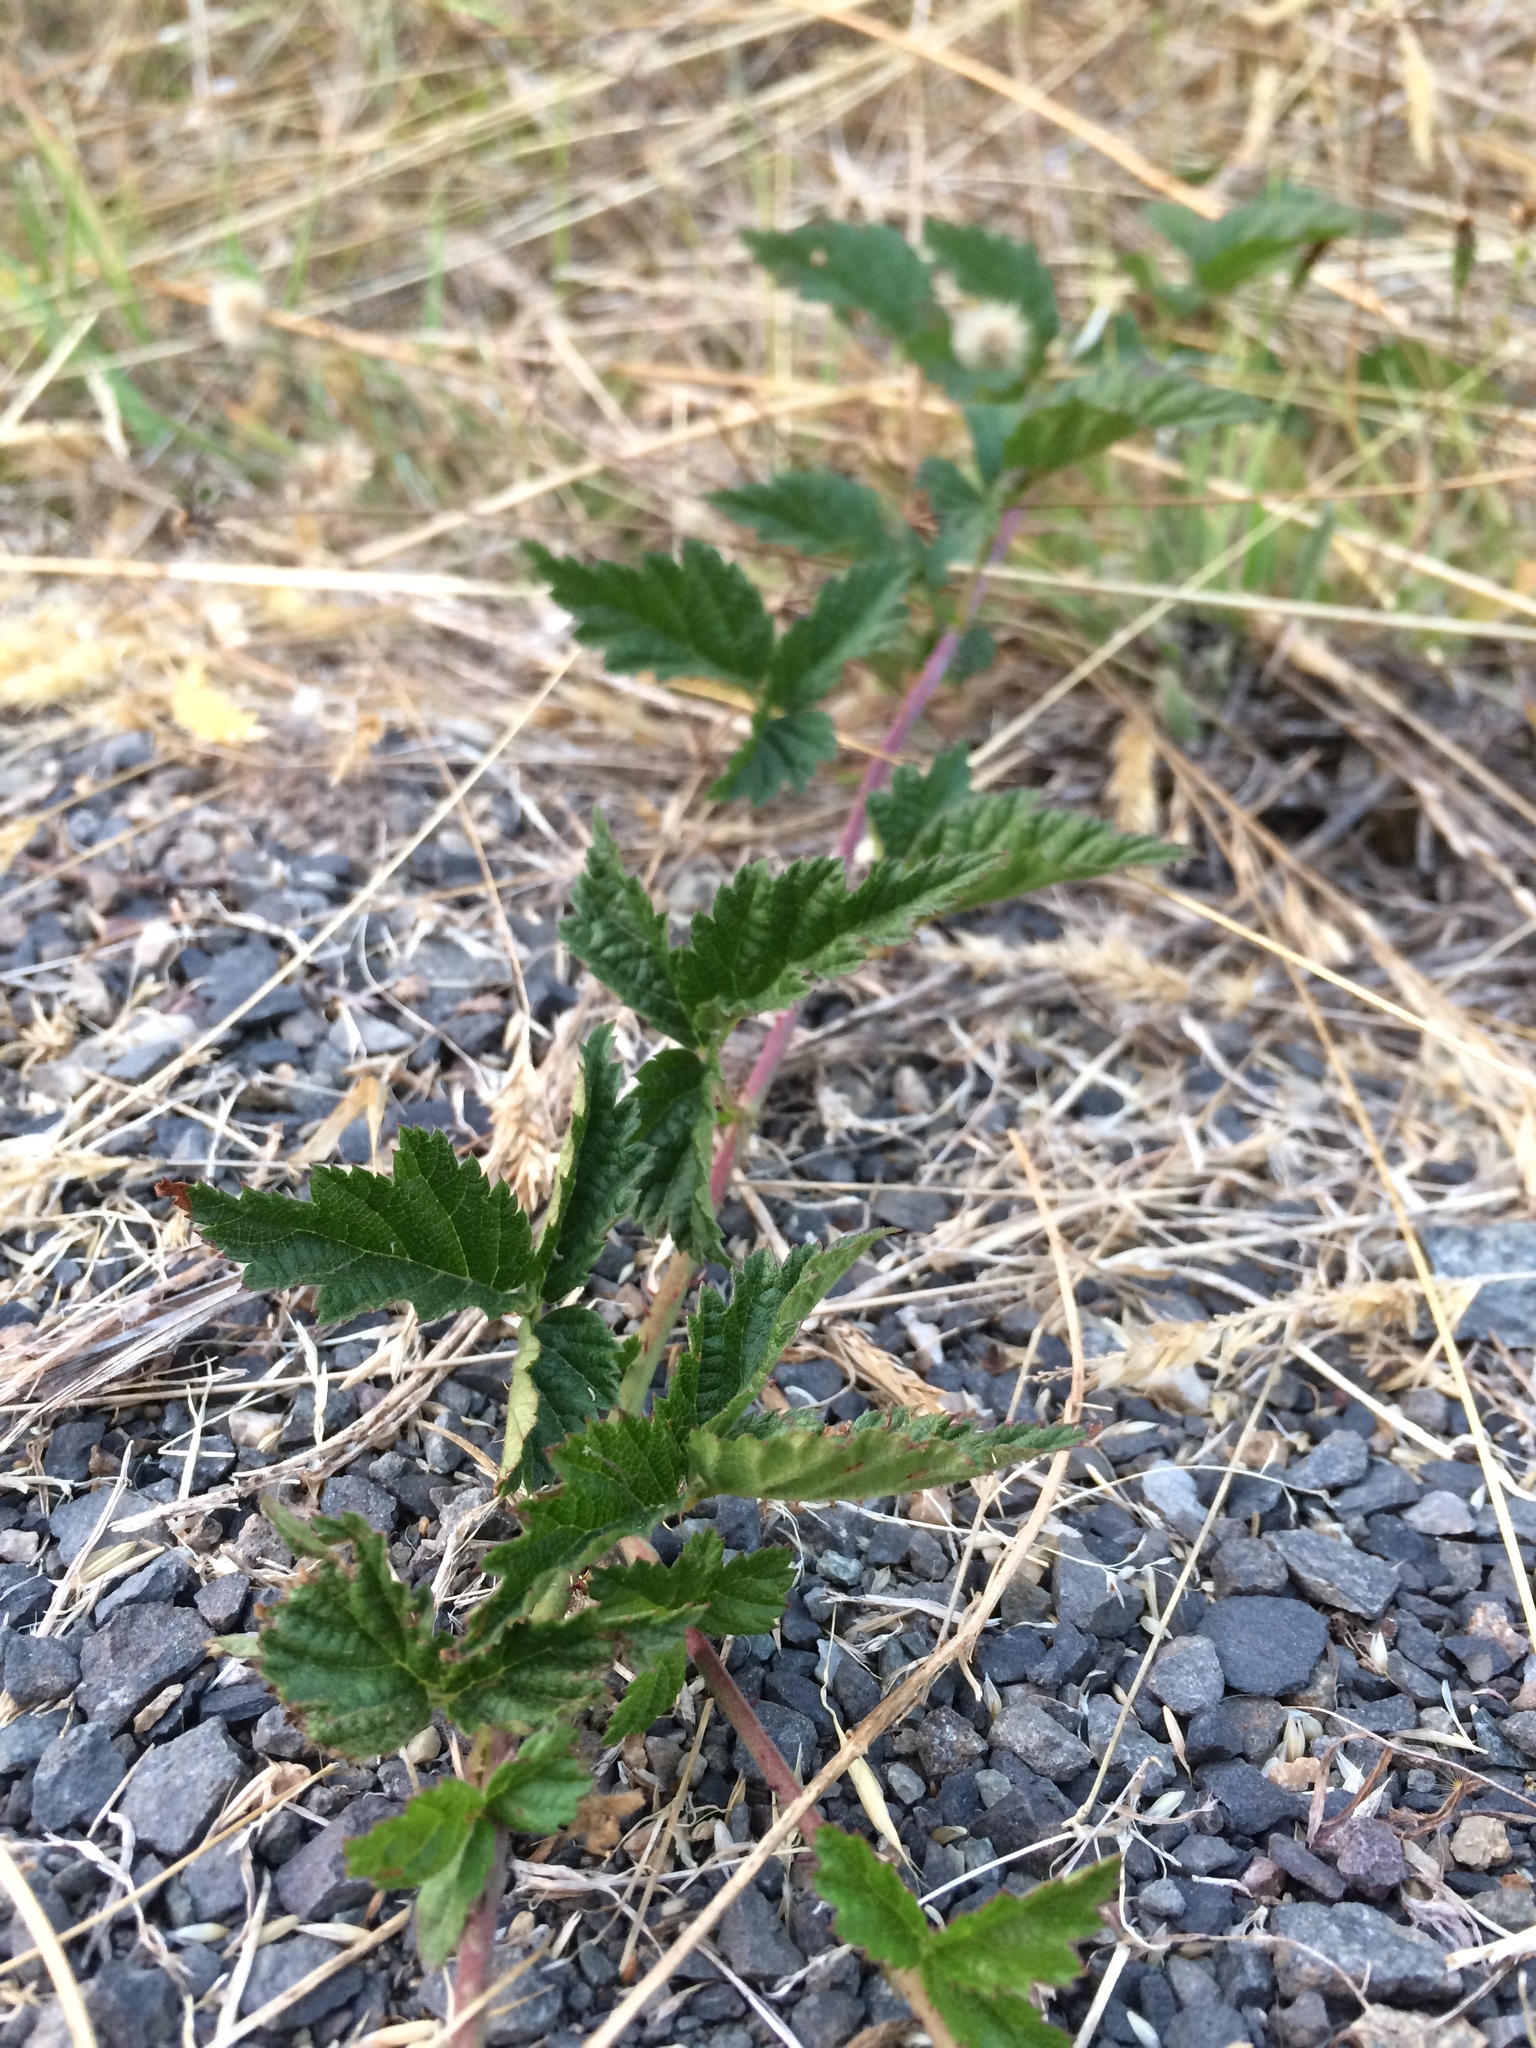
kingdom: Plantae
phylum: Tracheophyta
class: Magnoliopsida
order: Rosales
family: Rosaceae
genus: Rubus
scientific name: Rubus ursinus
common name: Pacific blackberry
